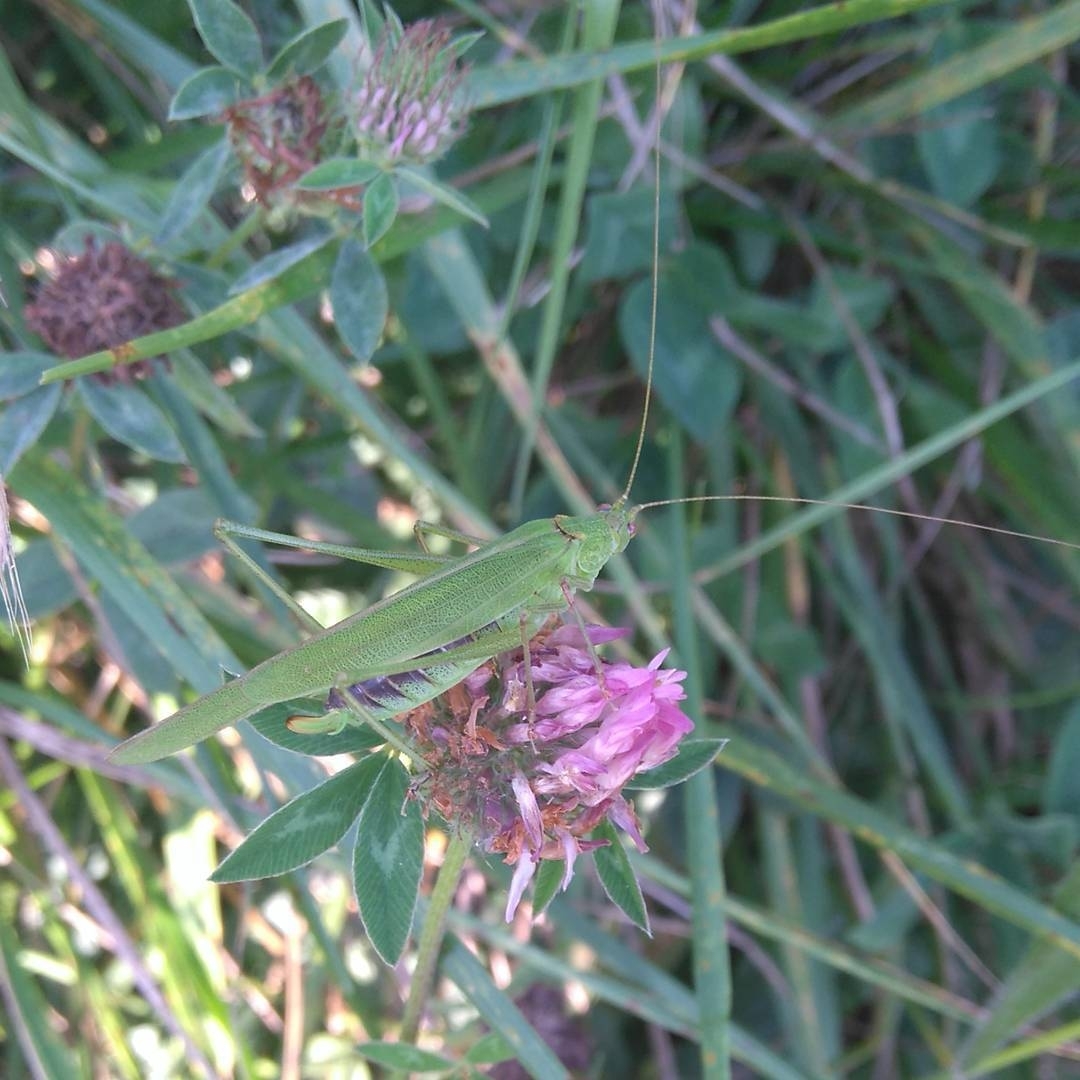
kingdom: Animalia
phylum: Arthropoda
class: Insecta
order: Orthoptera
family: Tettigoniidae
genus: Phaneroptera
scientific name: Phaneroptera falcata
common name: Sickle-bearing bush-cricket
